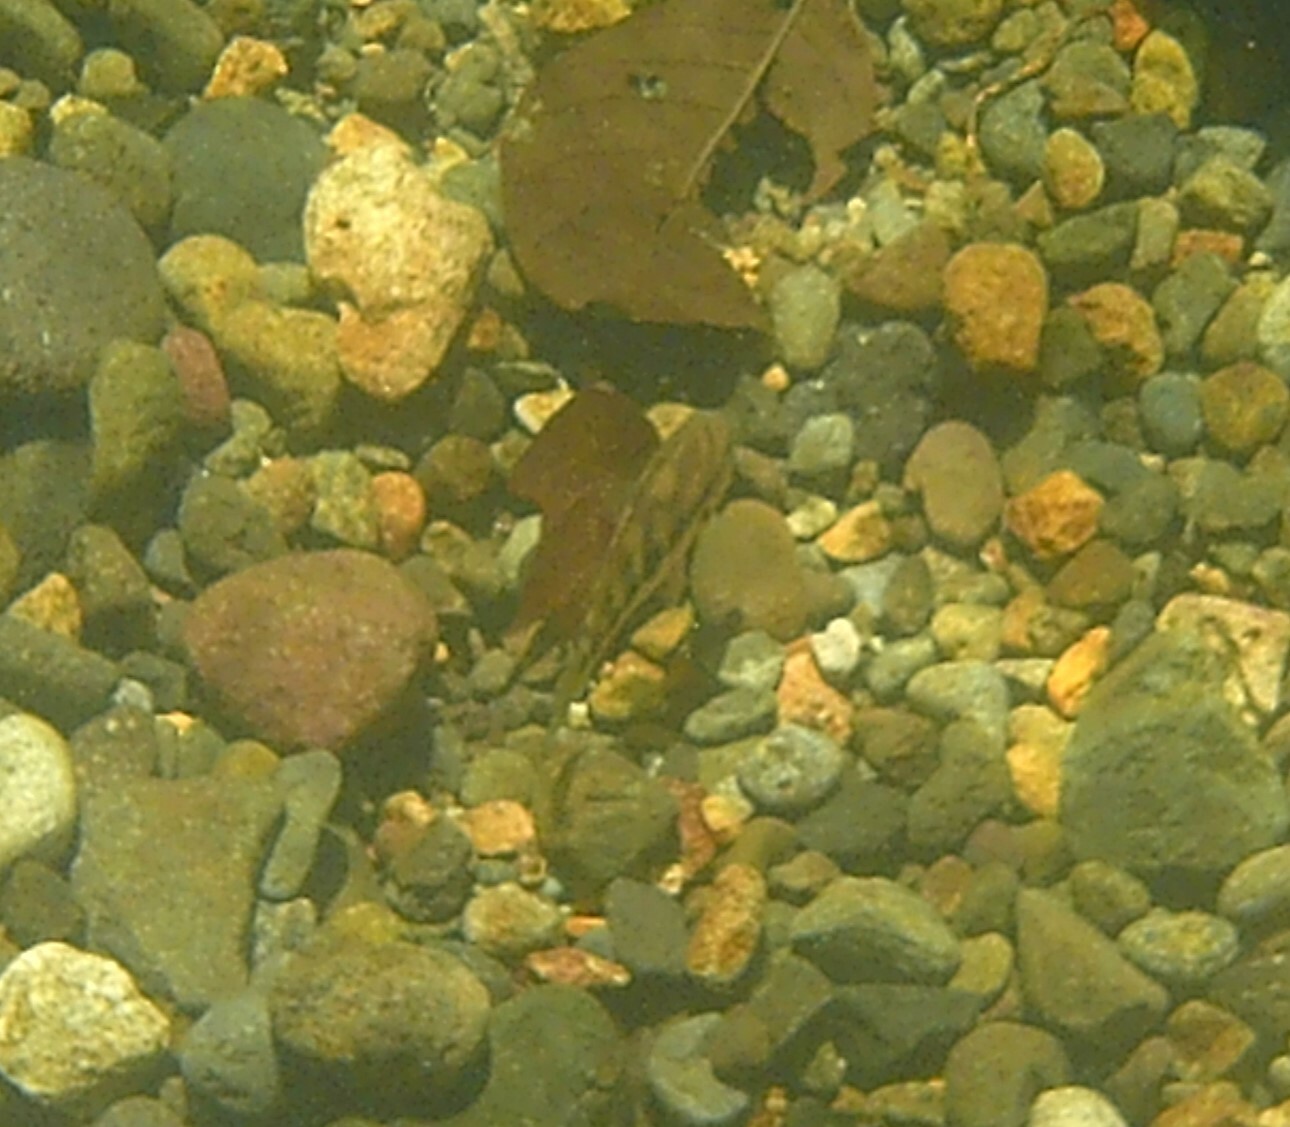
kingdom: Animalia
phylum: Chordata
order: Perciformes
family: Cichlidae
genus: Talamancaheros
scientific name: Talamancaheros sieboldii
